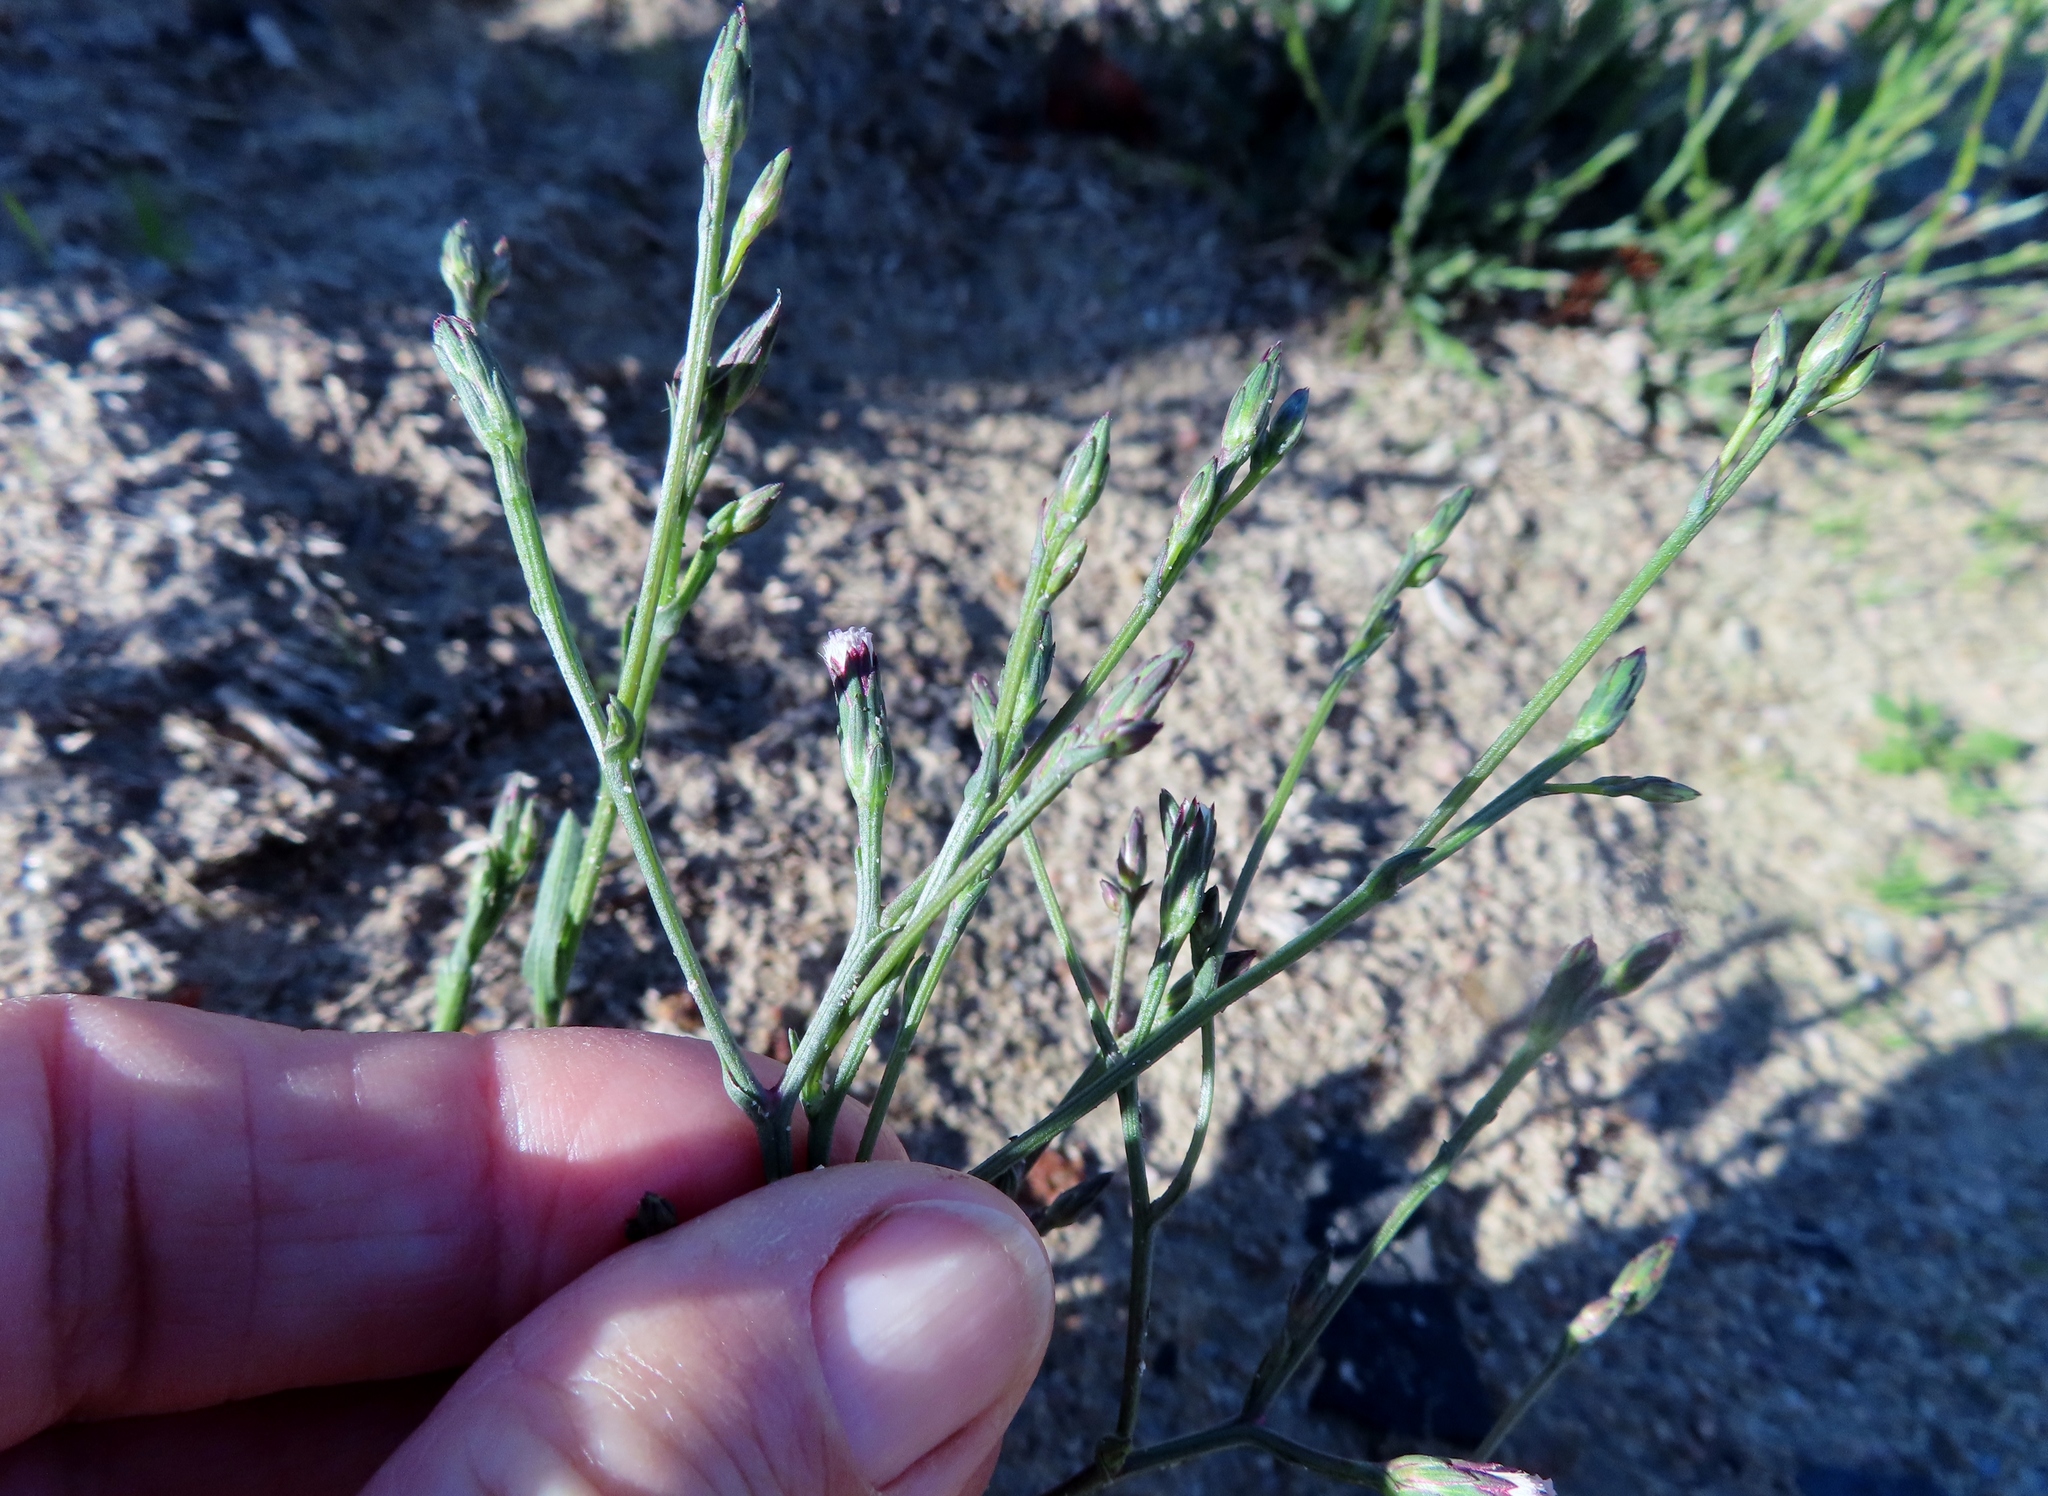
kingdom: Plantae
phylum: Tracheophyta
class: Magnoliopsida
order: Asterales
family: Asteraceae
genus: Symphyotrichum
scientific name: Symphyotrichum squamatum
